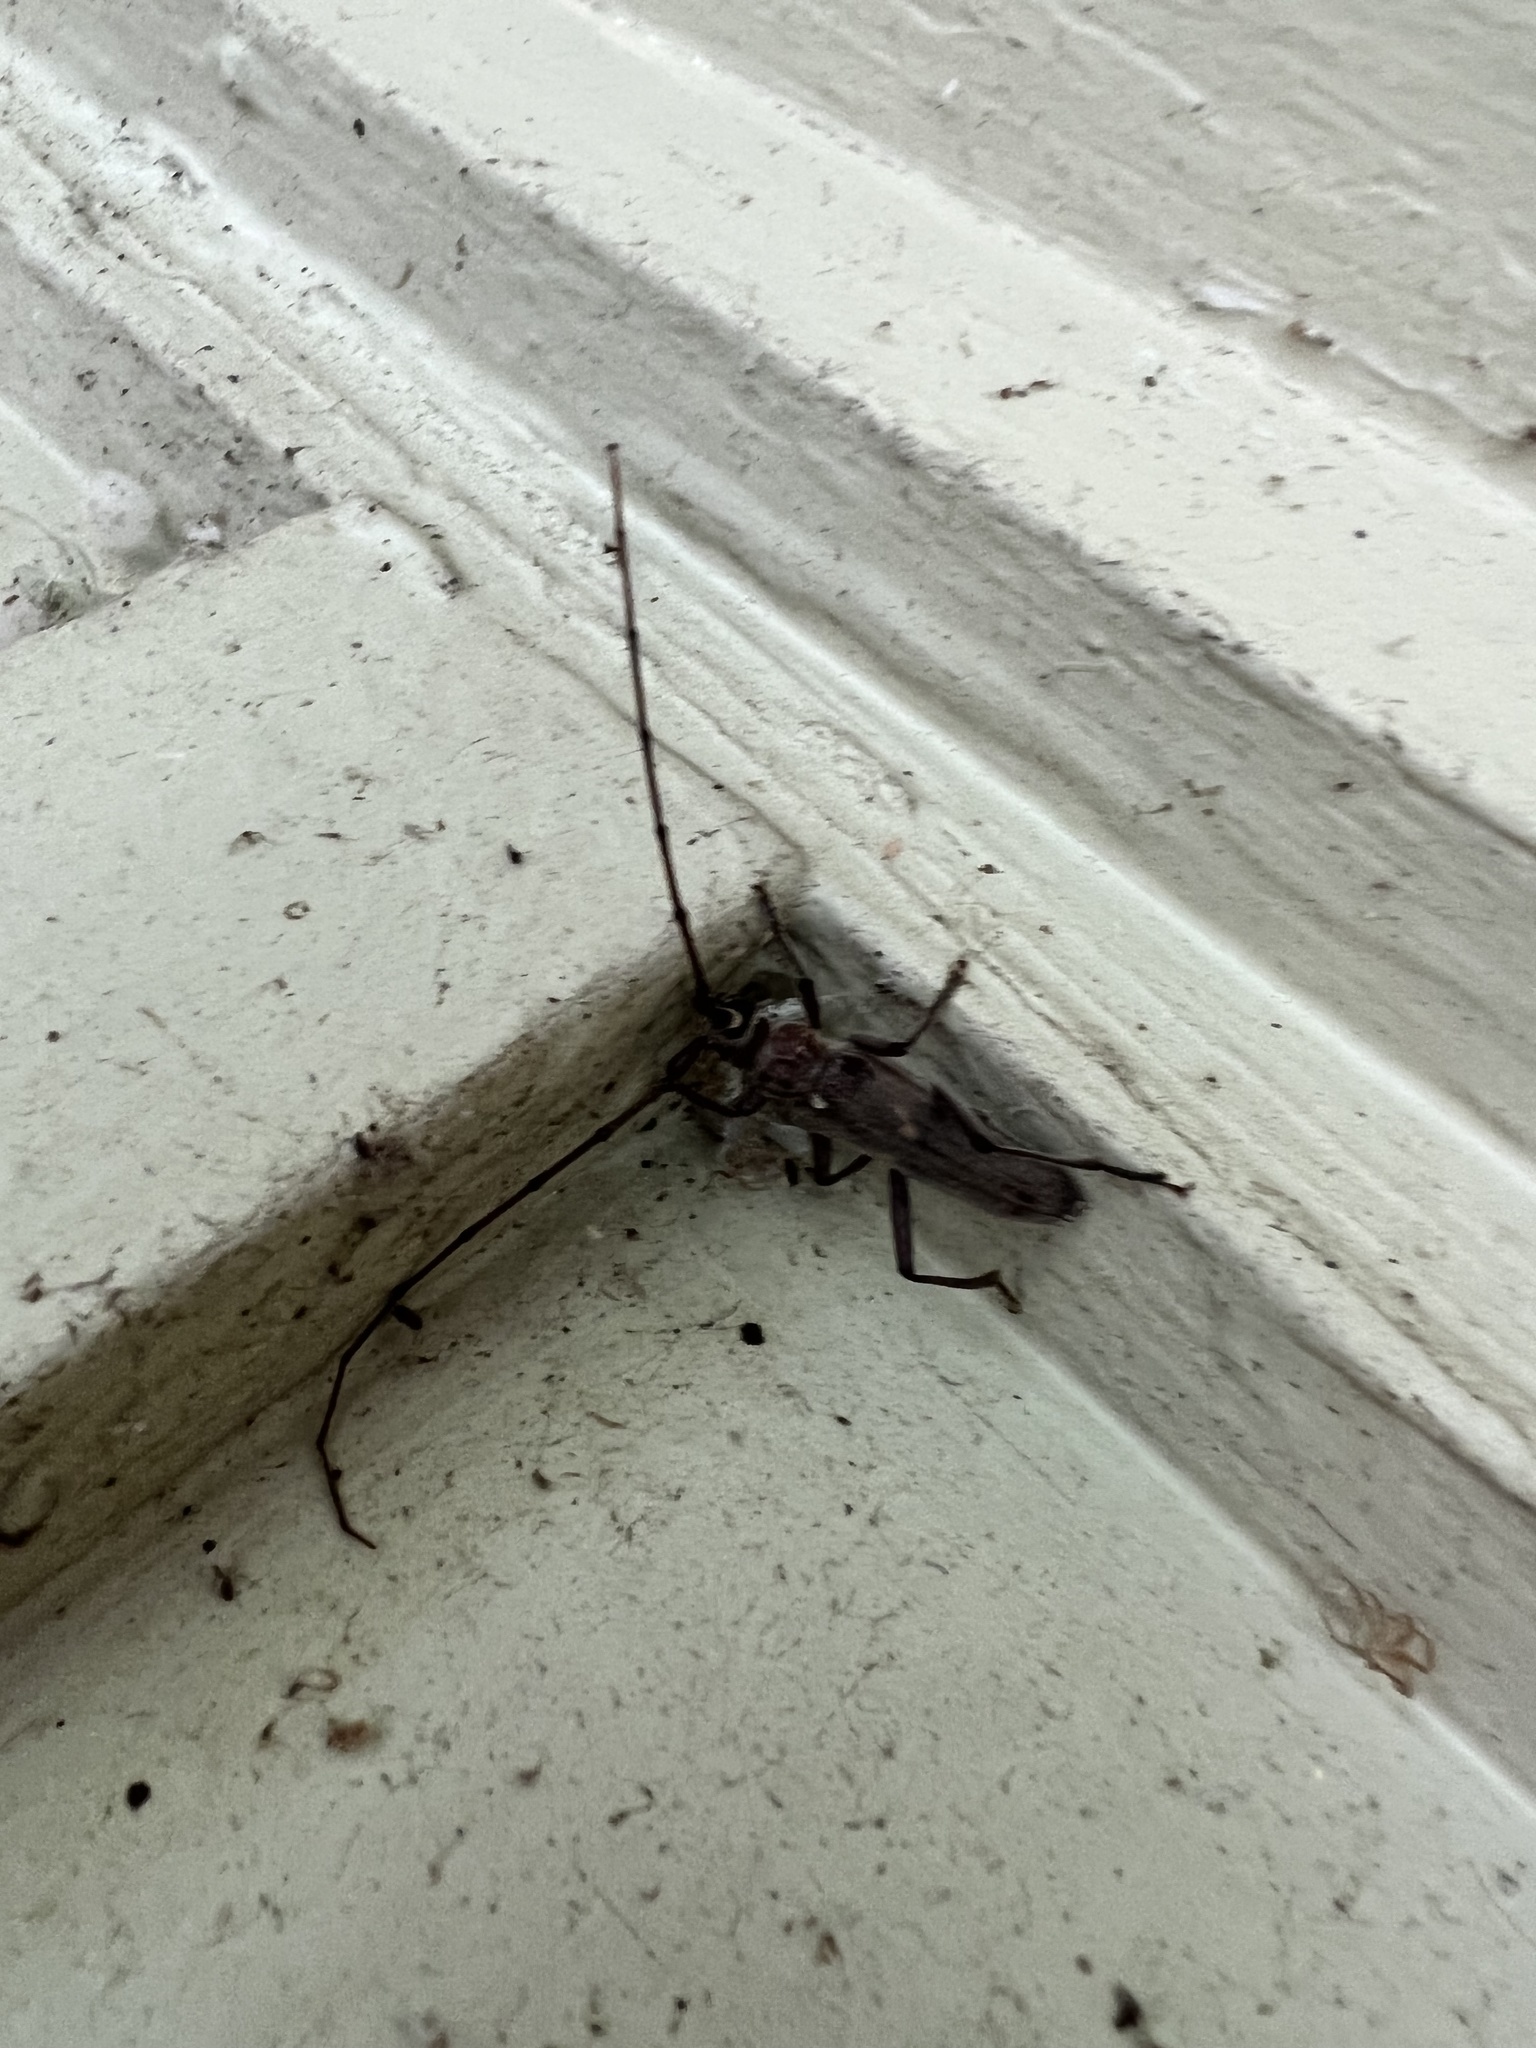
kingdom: Animalia
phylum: Arthropoda
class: Insecta
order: Coleoptera
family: Cerambycidae
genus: Knulliana
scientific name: Knulliana cincta
